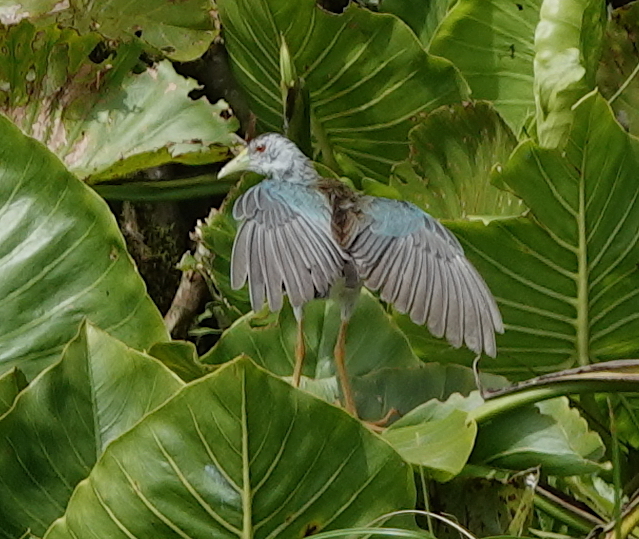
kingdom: Animalia
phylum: Chordata
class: Aves
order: Gruiformes
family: Rallidae
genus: Porphyrio
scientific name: Porphyrio flavirostris
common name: Azure gallinule
